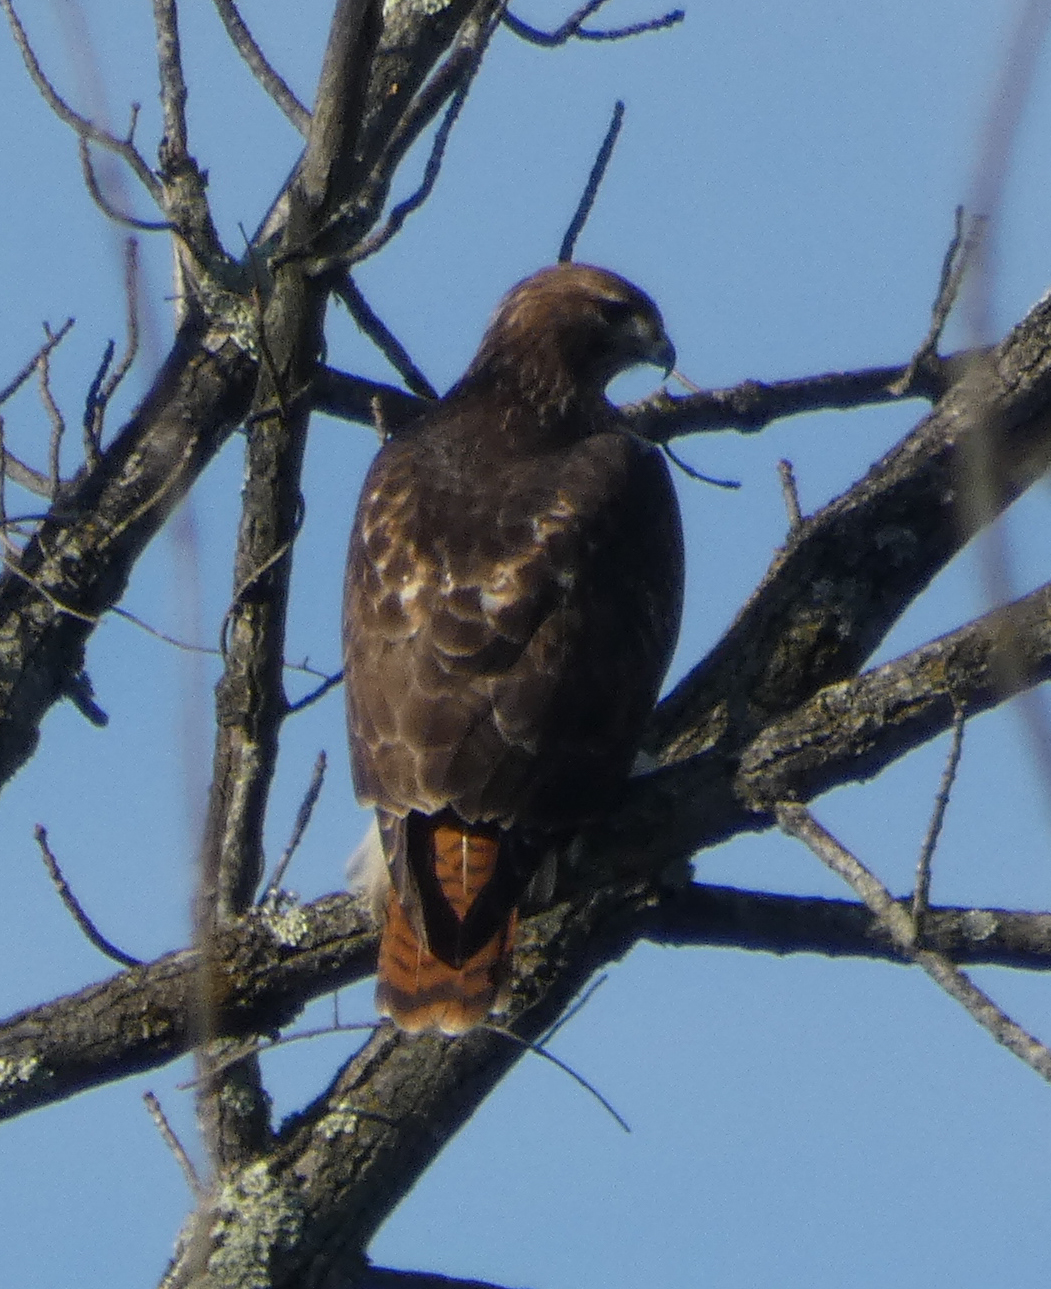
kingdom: Animalia
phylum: Chordata
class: Aves
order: Accipitriformes
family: Accipitridae
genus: Buteo
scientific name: Buteo jamaicensis
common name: Red-tailed hawk
